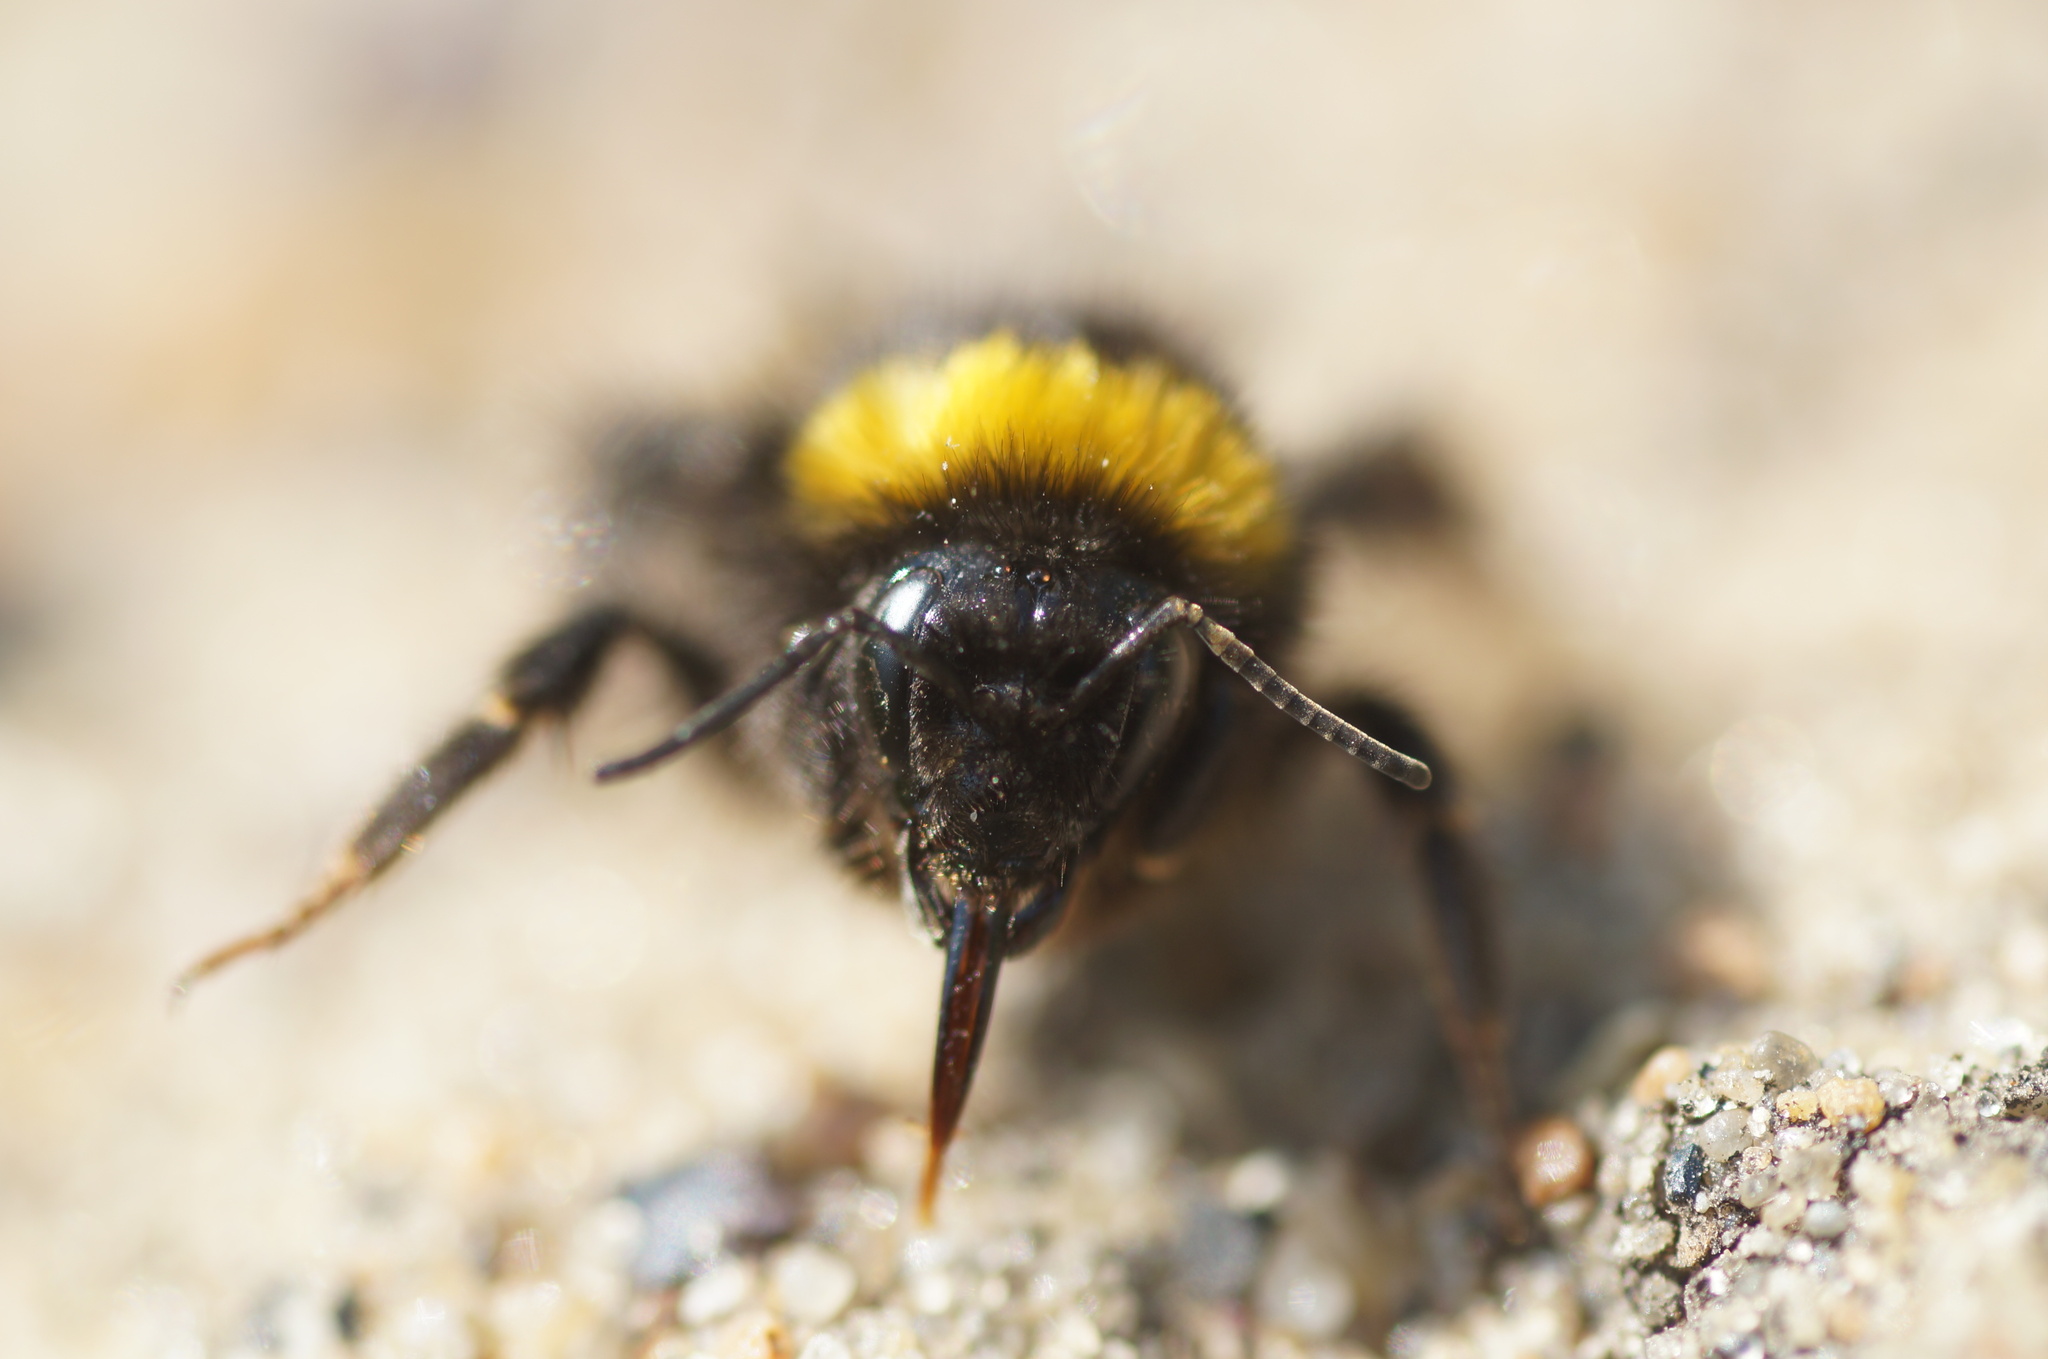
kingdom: Animalia
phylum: Arthropoda
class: Insecta
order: Hymenoptera
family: Apidae
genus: Bombus
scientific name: Bombus
